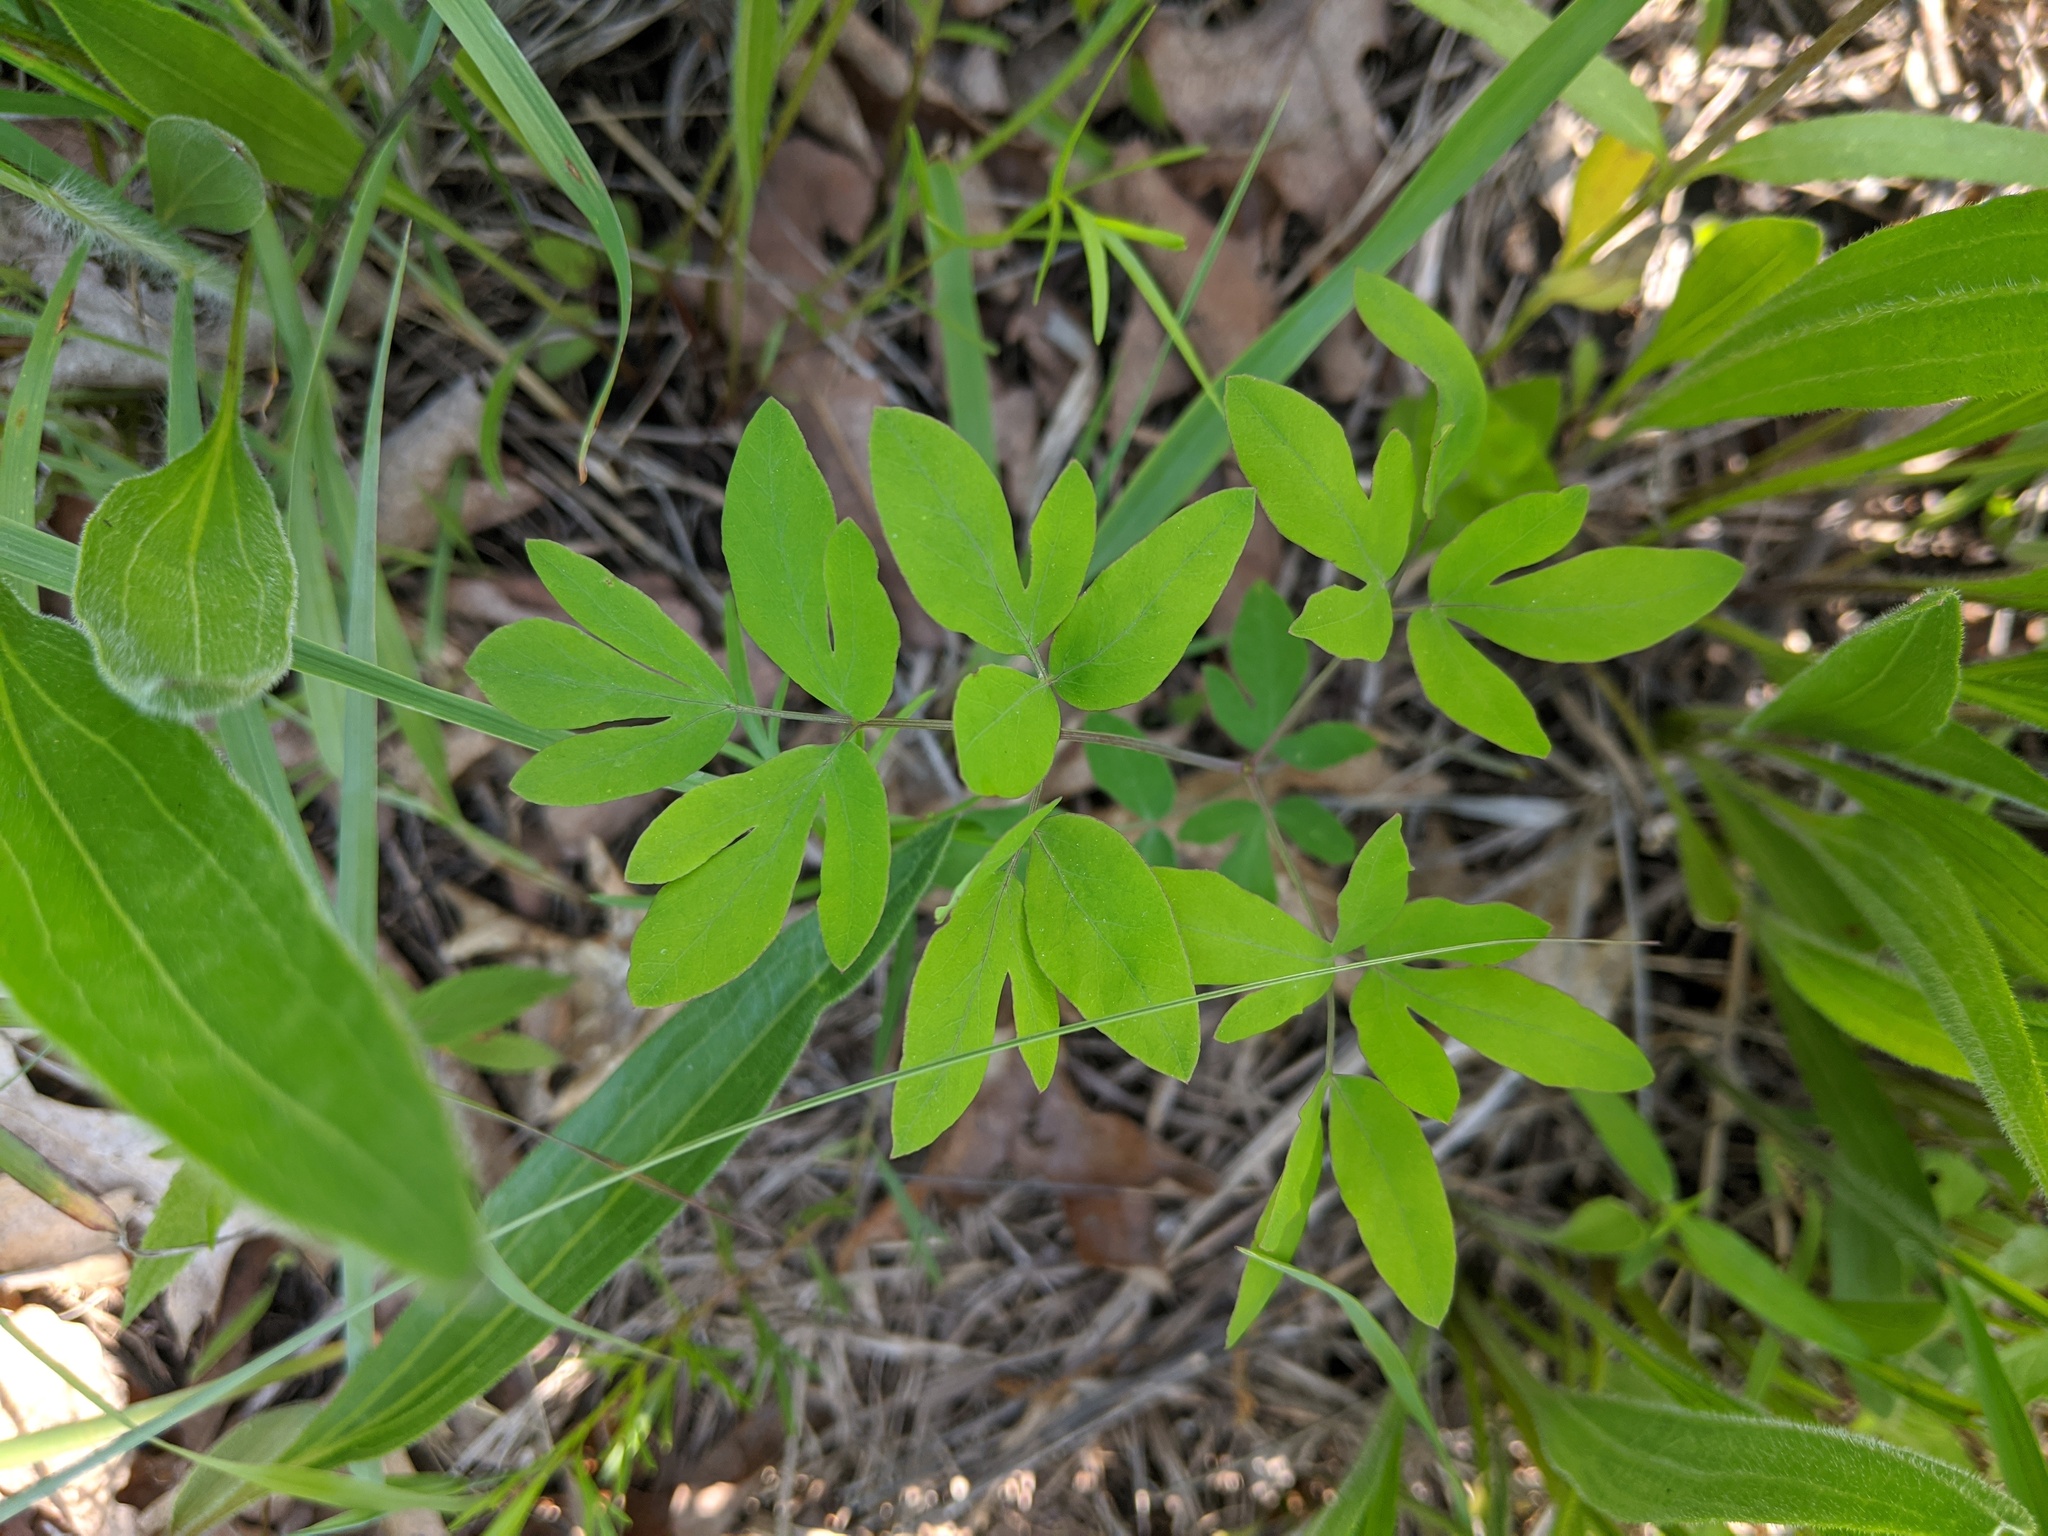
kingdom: Plantae
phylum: Tracheophyta
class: Magnoliopsida
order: Apiales
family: Apiaceae
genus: Taenidia
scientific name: Taenidia integerrima
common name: Golden alexander
